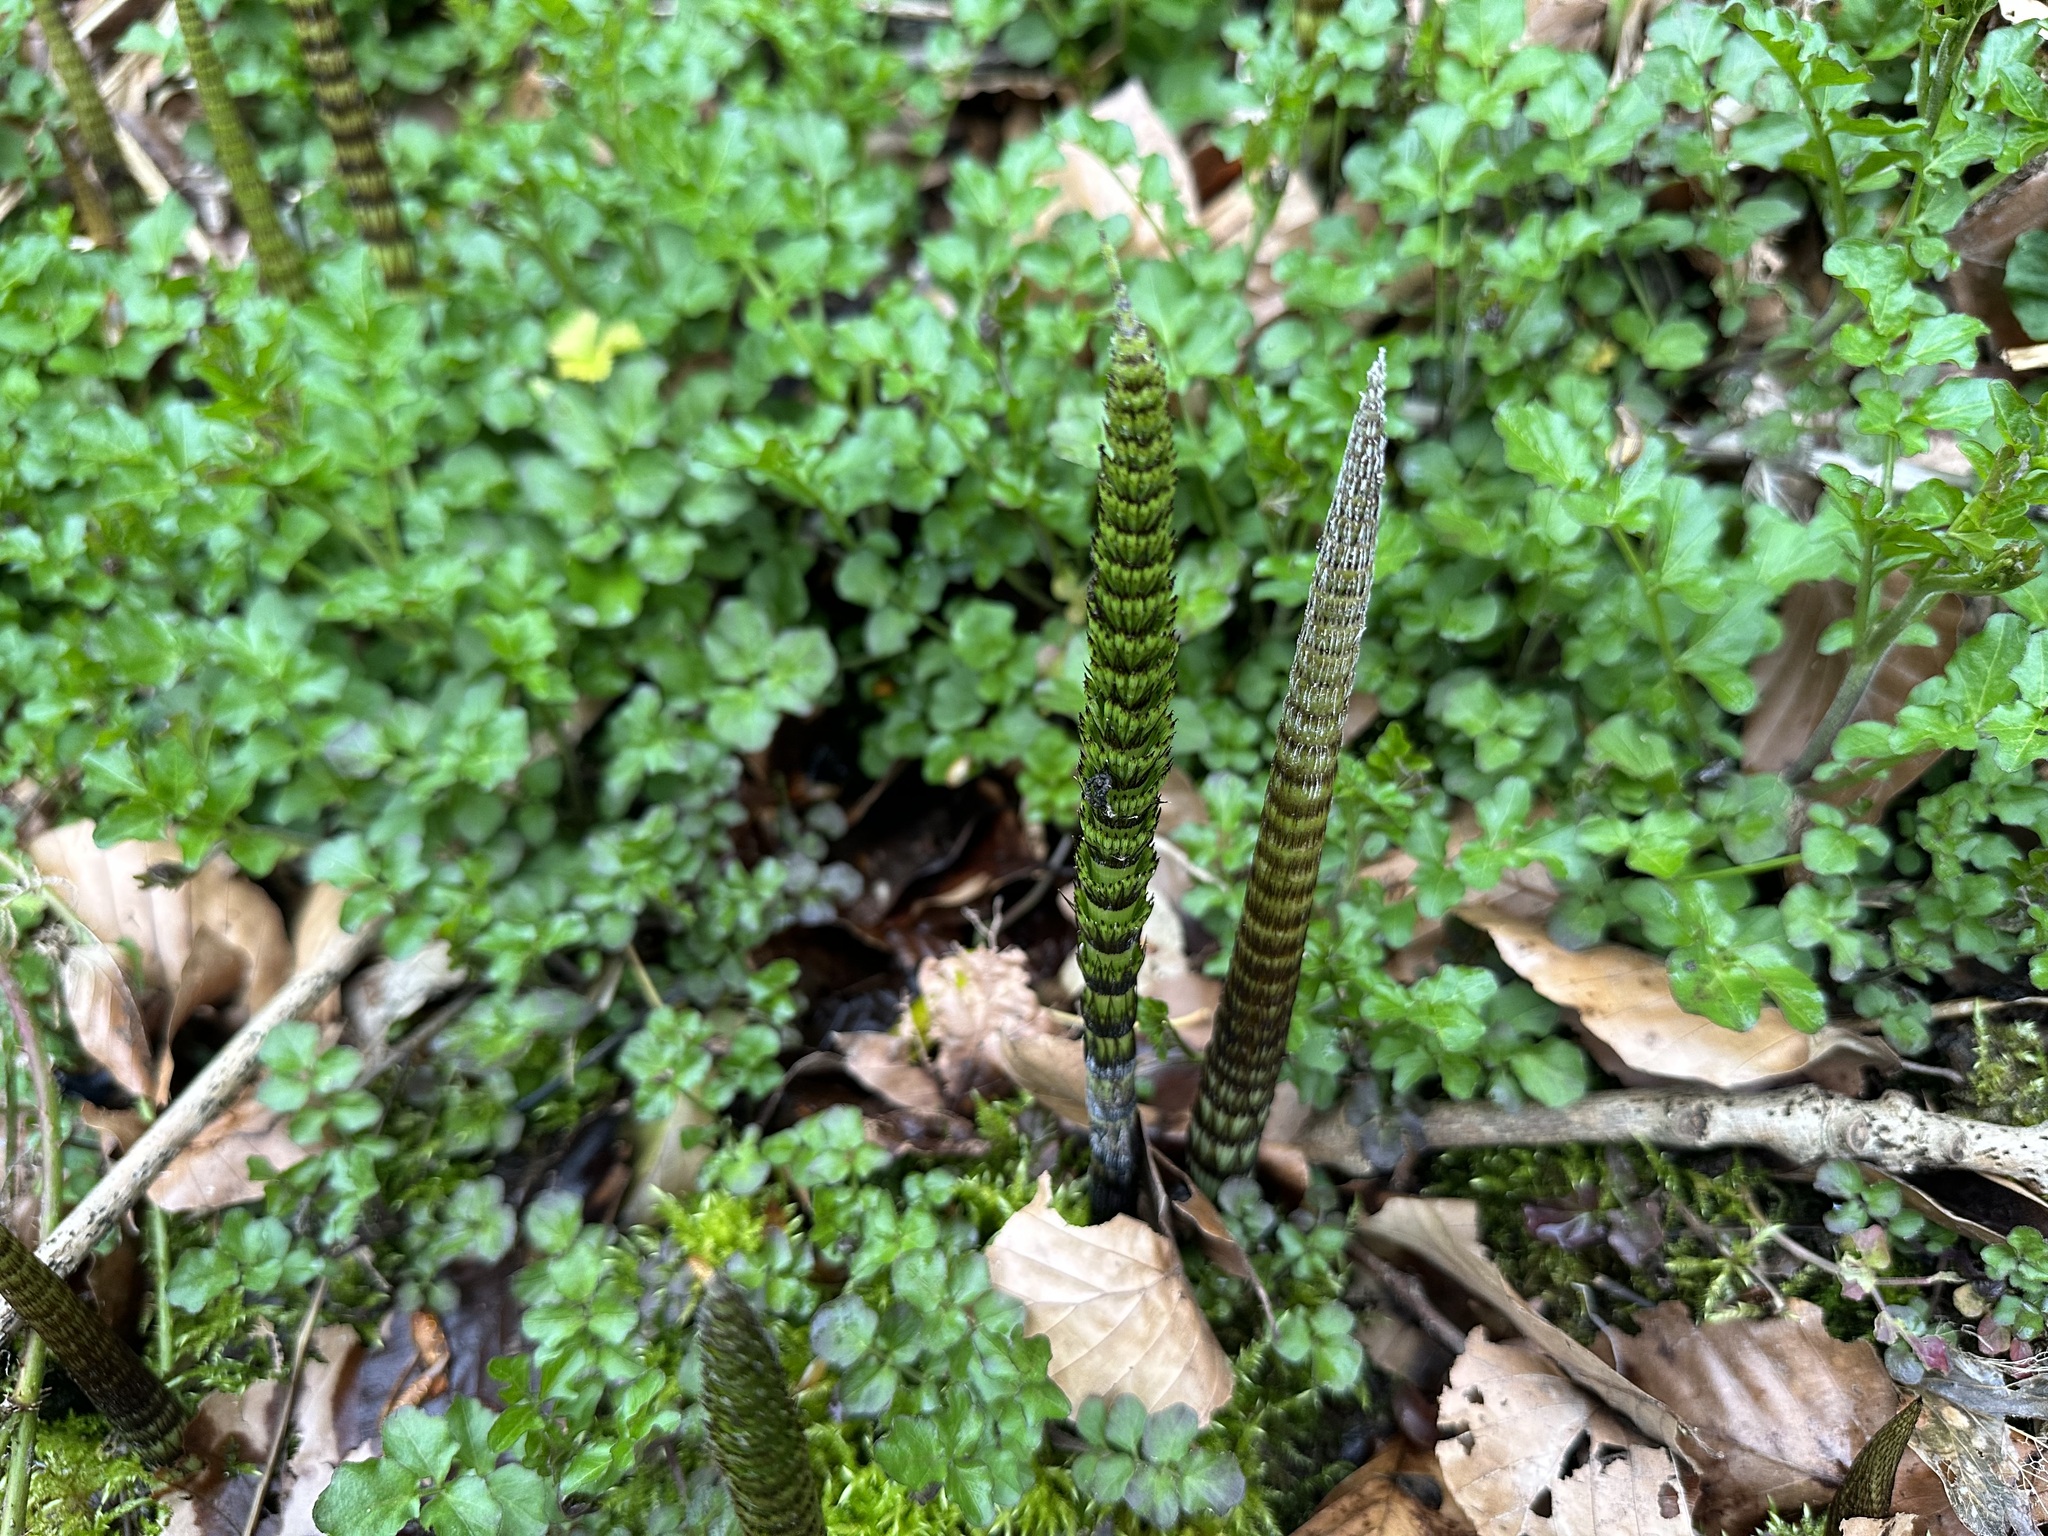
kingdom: Plantae
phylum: Tracheophyta
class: Polypodiopsida
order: Equisetales
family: Equisetaceae
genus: Equisetum
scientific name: Equisetum telmateia
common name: Great horsetail
